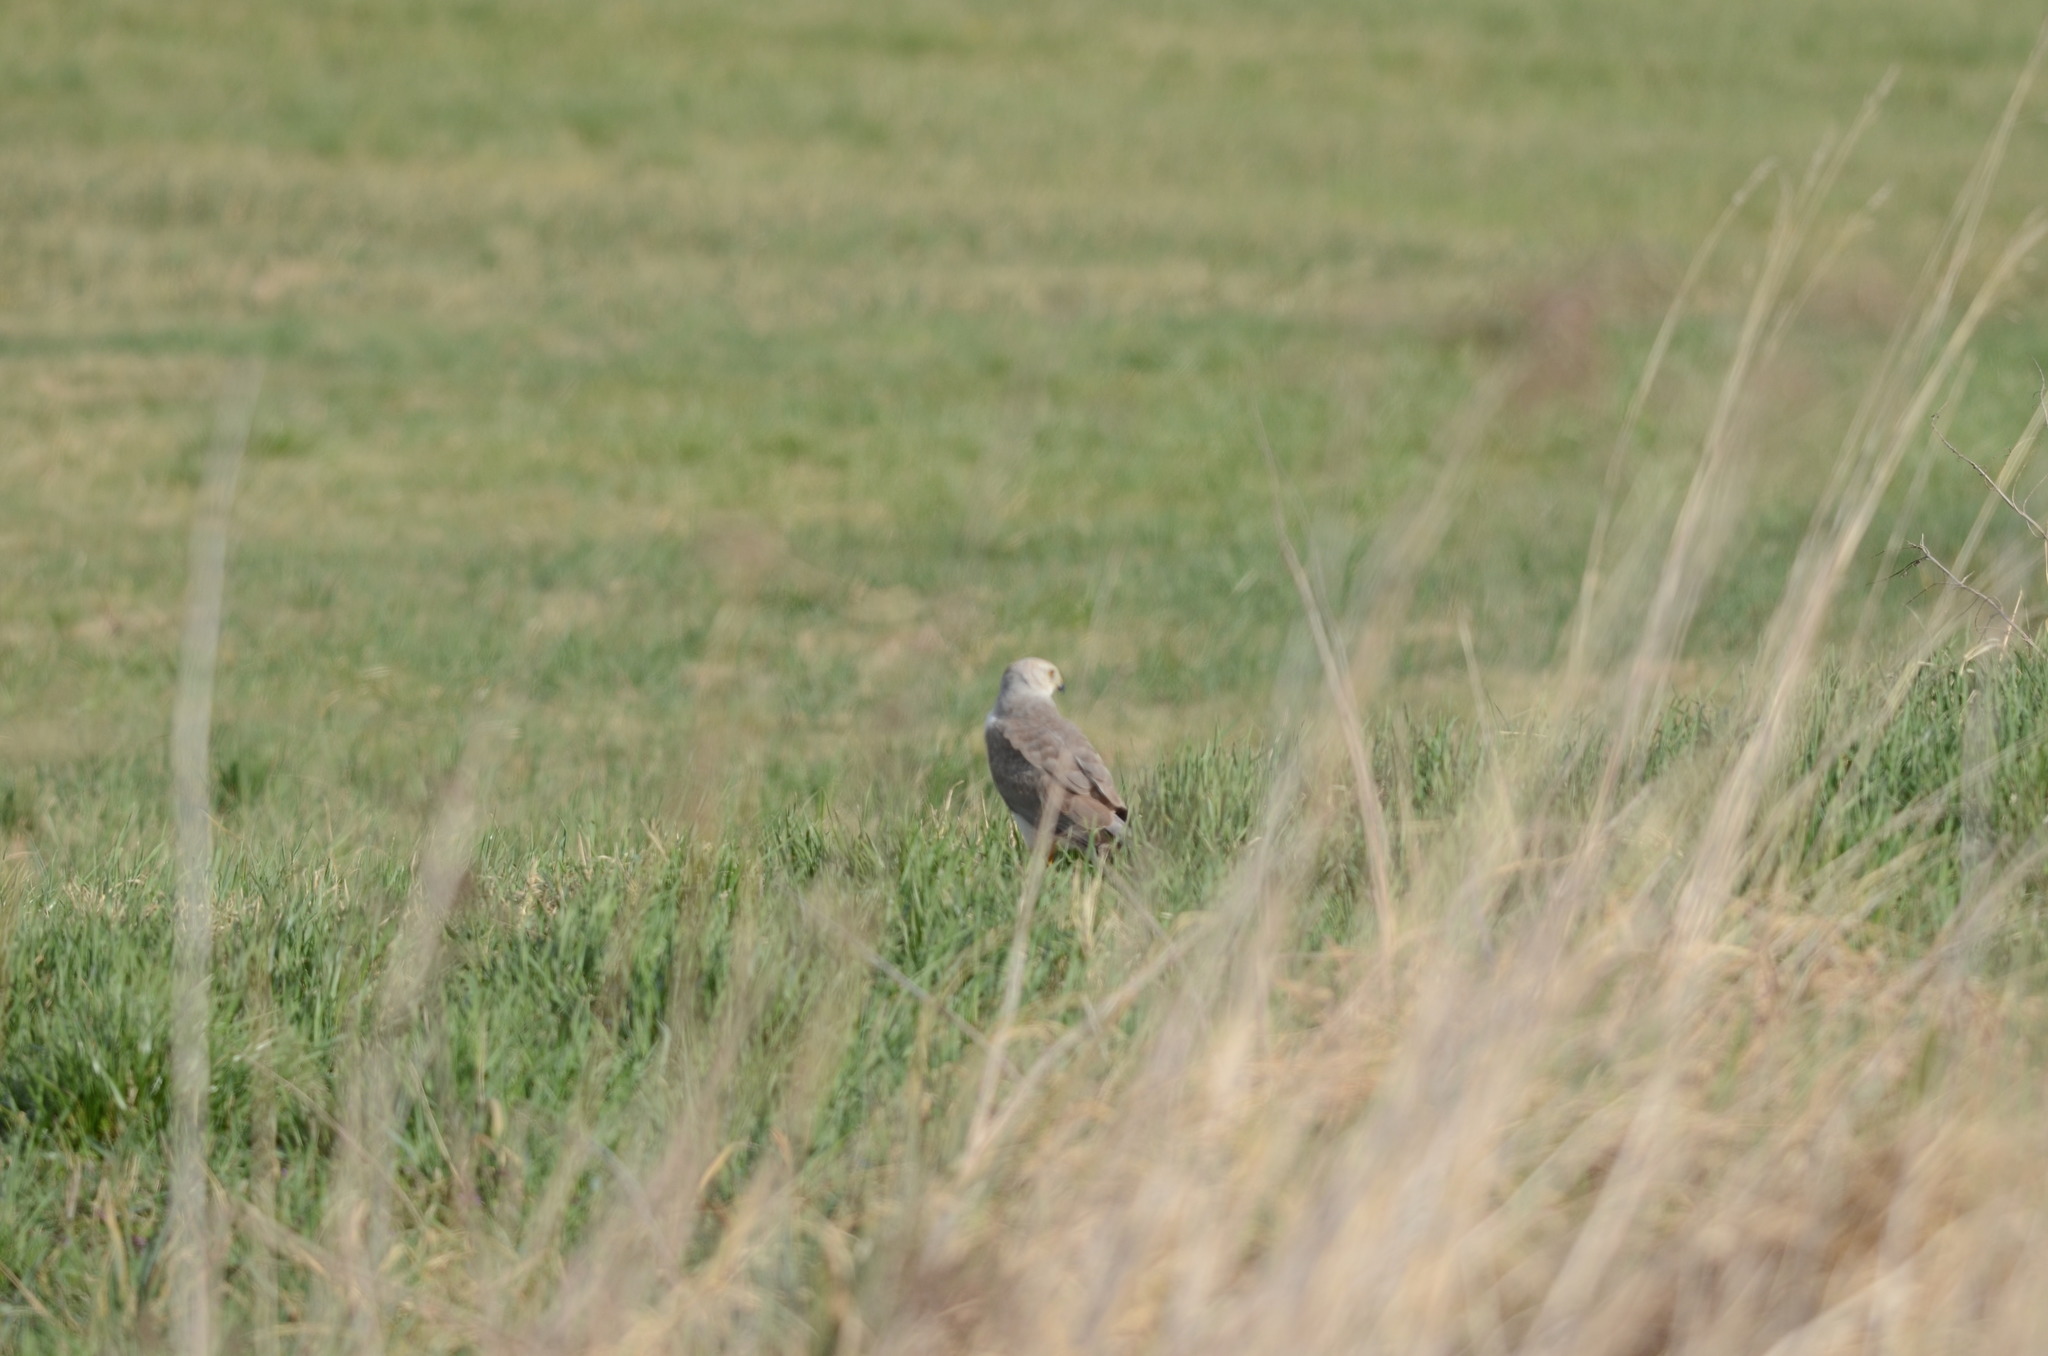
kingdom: Animalia
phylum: Chordata
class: Aves
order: Accipitriformes
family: Accipitridae
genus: Circus
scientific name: Circus macrourus
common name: Pallid harrier
